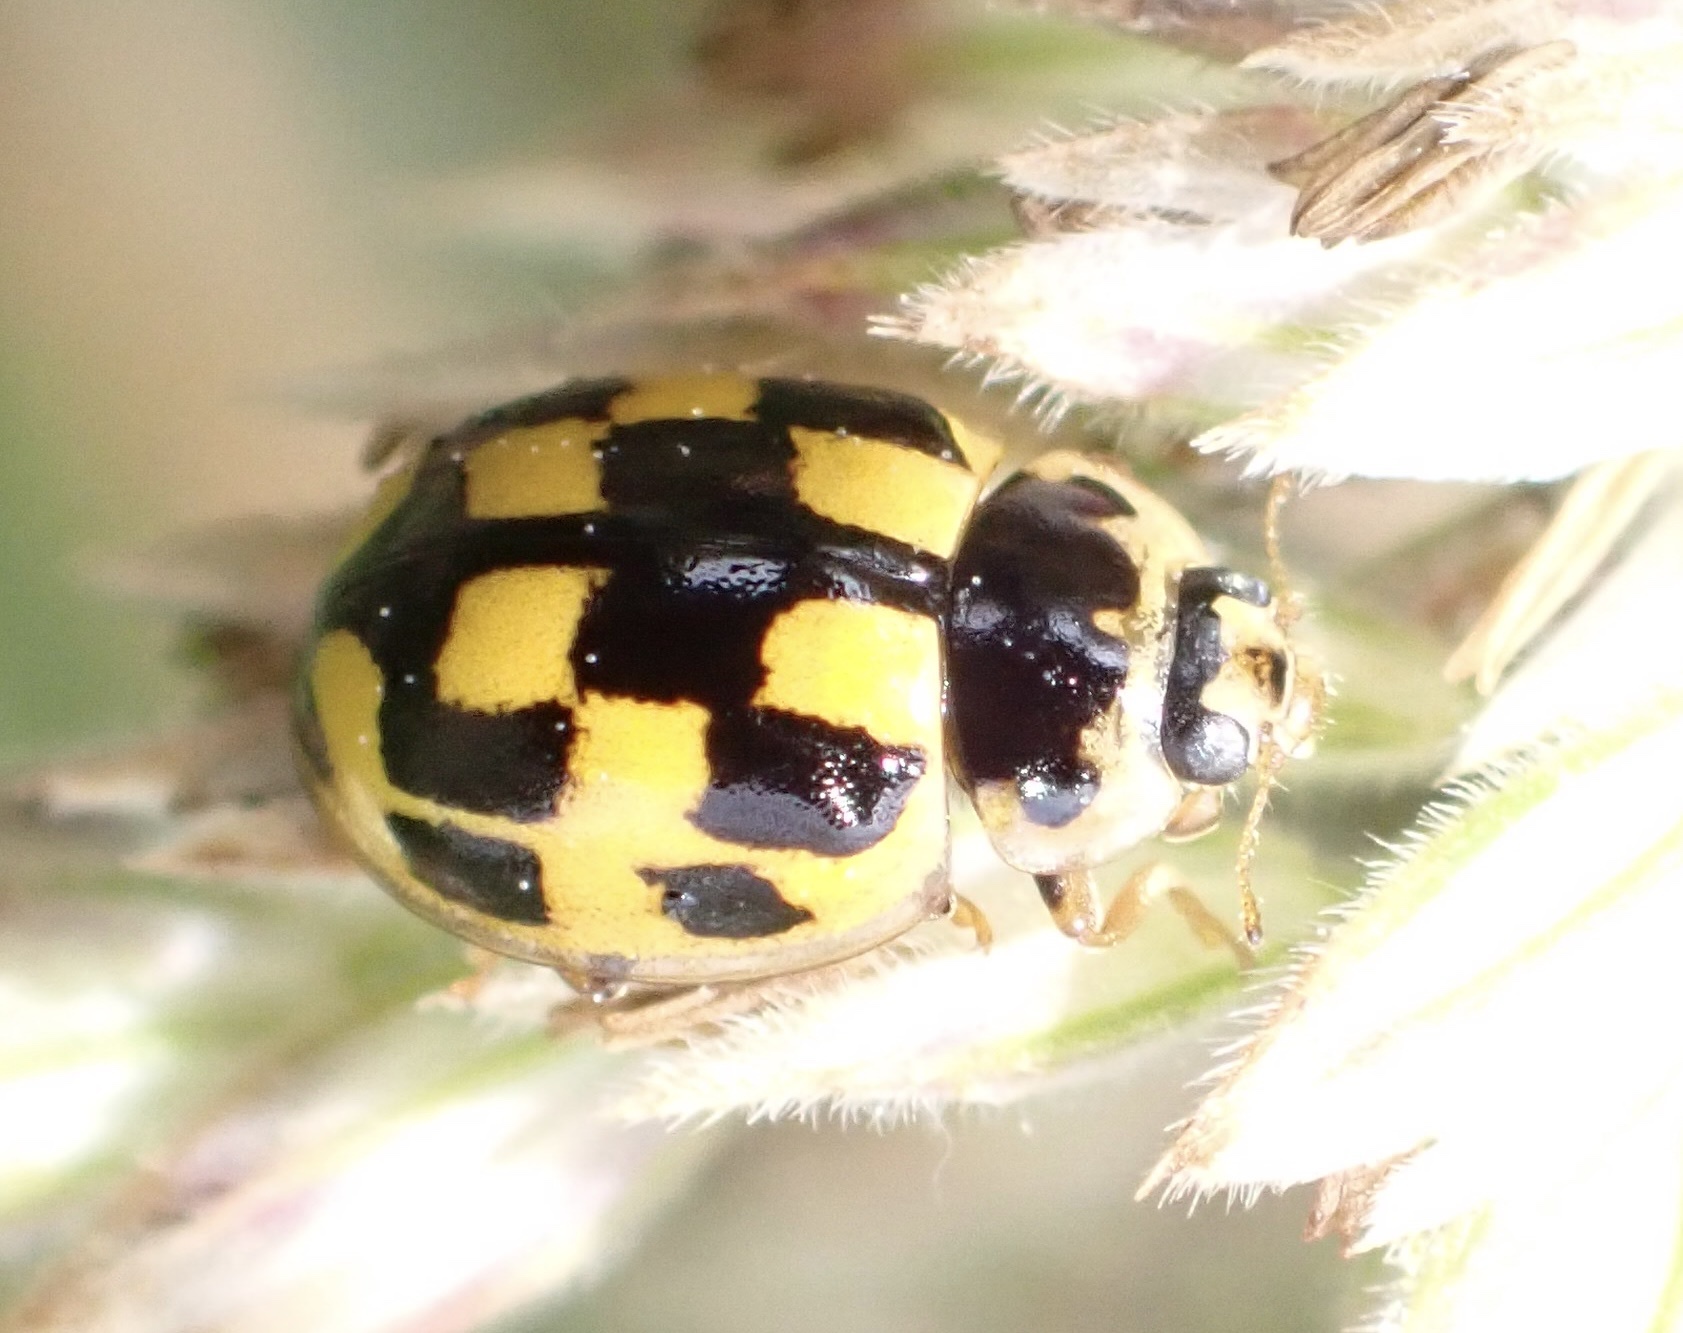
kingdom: Animalia
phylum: Arthropoda
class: Insecta
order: Coleoptera
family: Coccinellidae
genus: Propylaea
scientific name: Propylaea quatuordecimpunctata
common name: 14-spotted ladybird beetle
